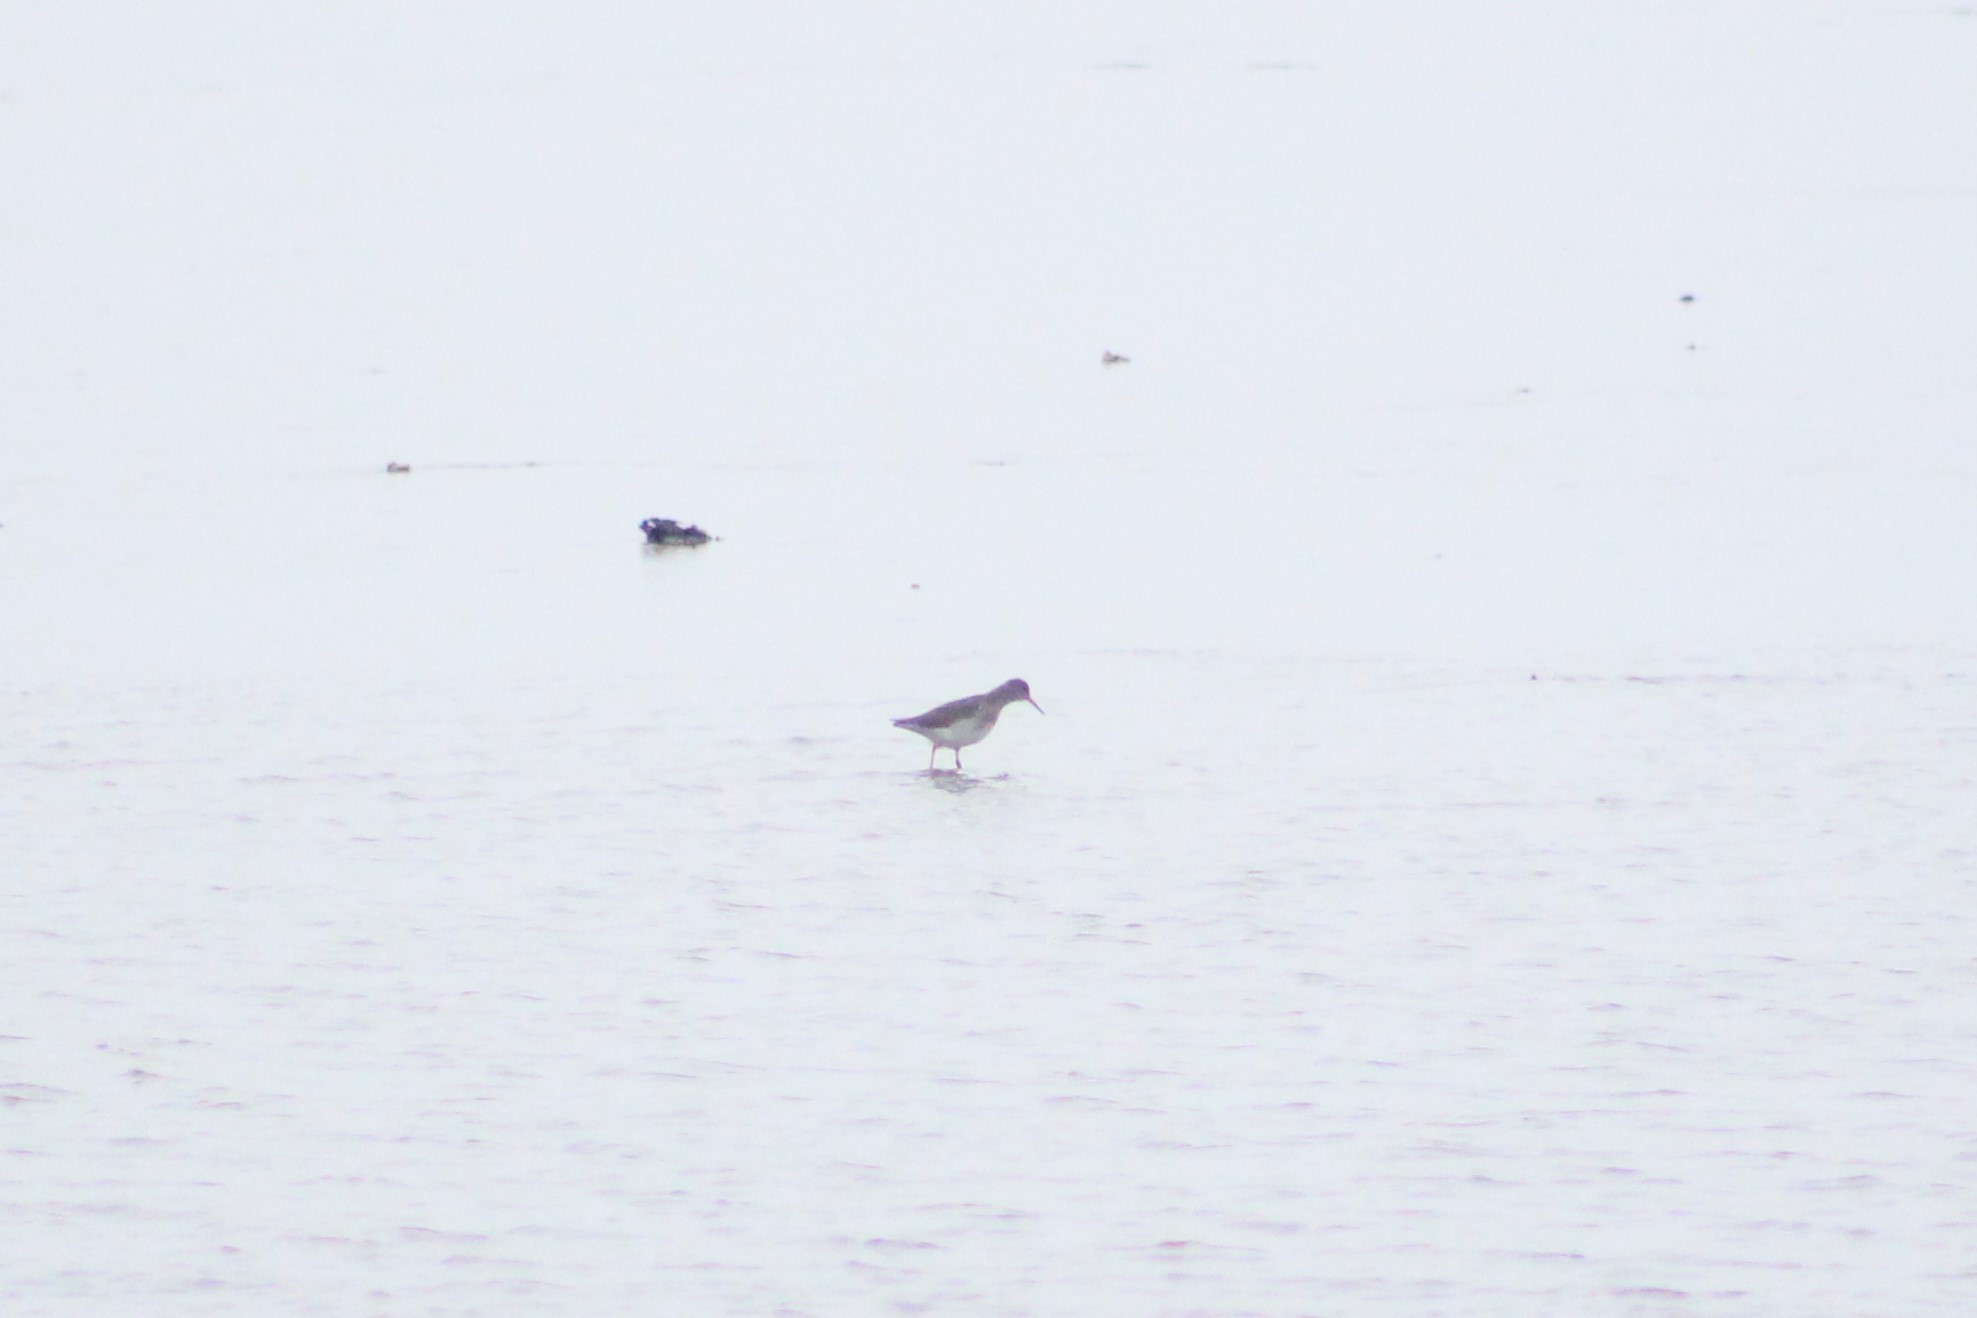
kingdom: Animalia
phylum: Chordata
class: Aves
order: Charadriiformes
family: Scolopacidae
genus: Tringa
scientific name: Tringa totanus
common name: Common redshank
